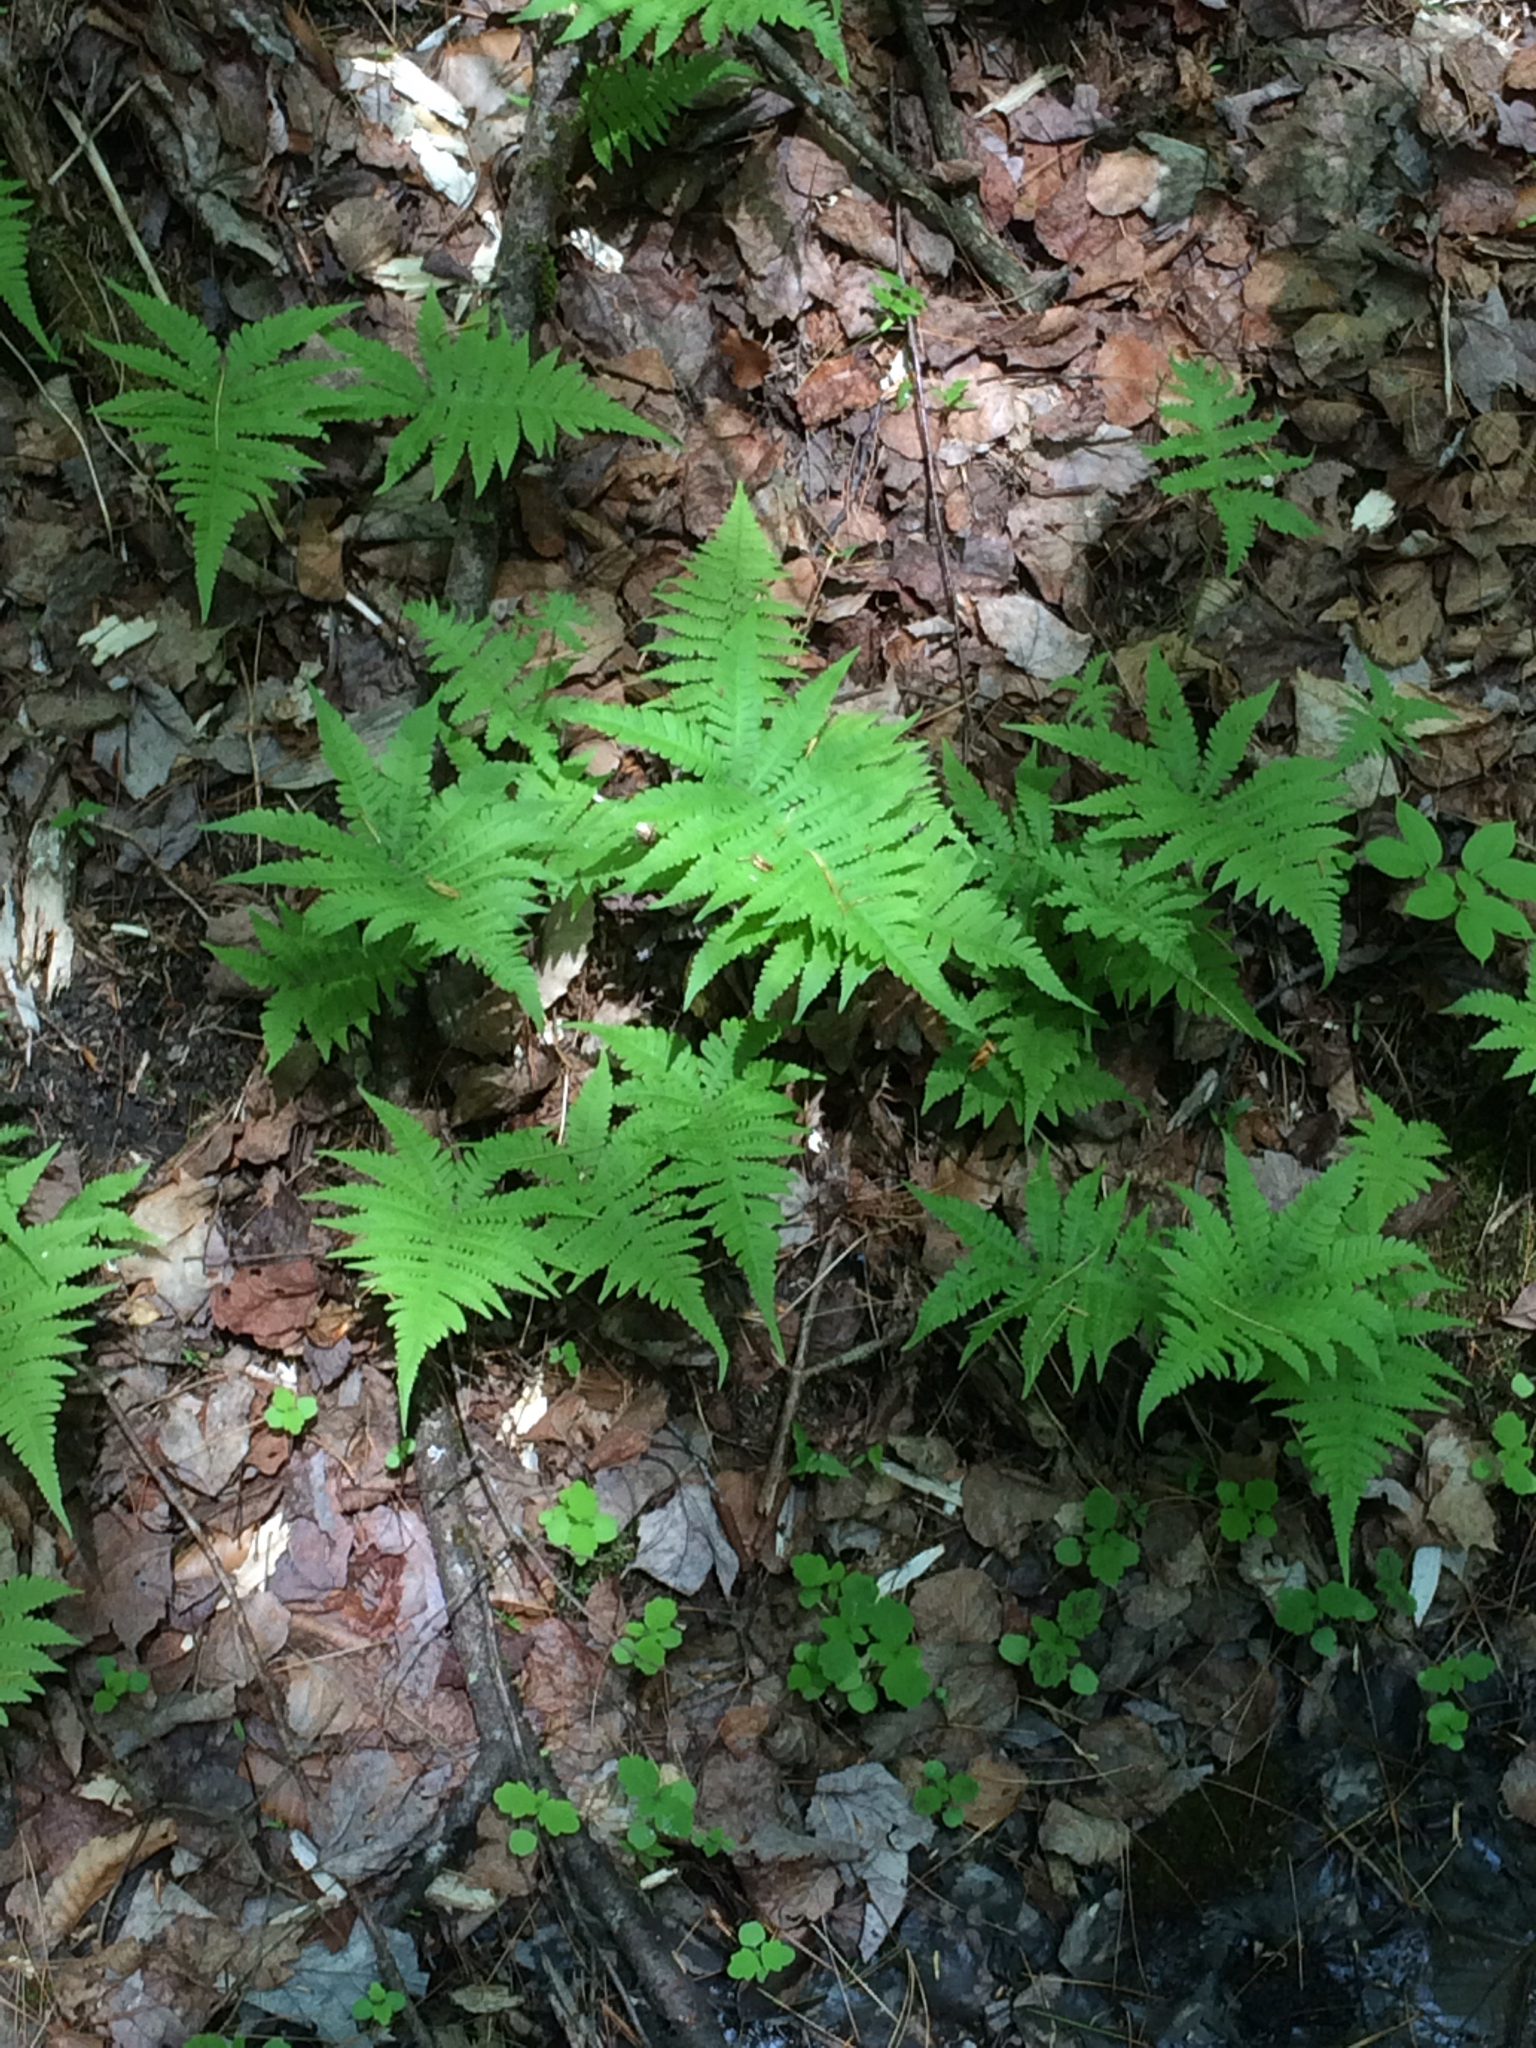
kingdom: Plantae
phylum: Tracheophyta
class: Polypodiopsida
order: Polypodiales
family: Thelypteridaceae
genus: Phegopteris
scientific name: Phegopteris connectilis
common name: Beech fern
